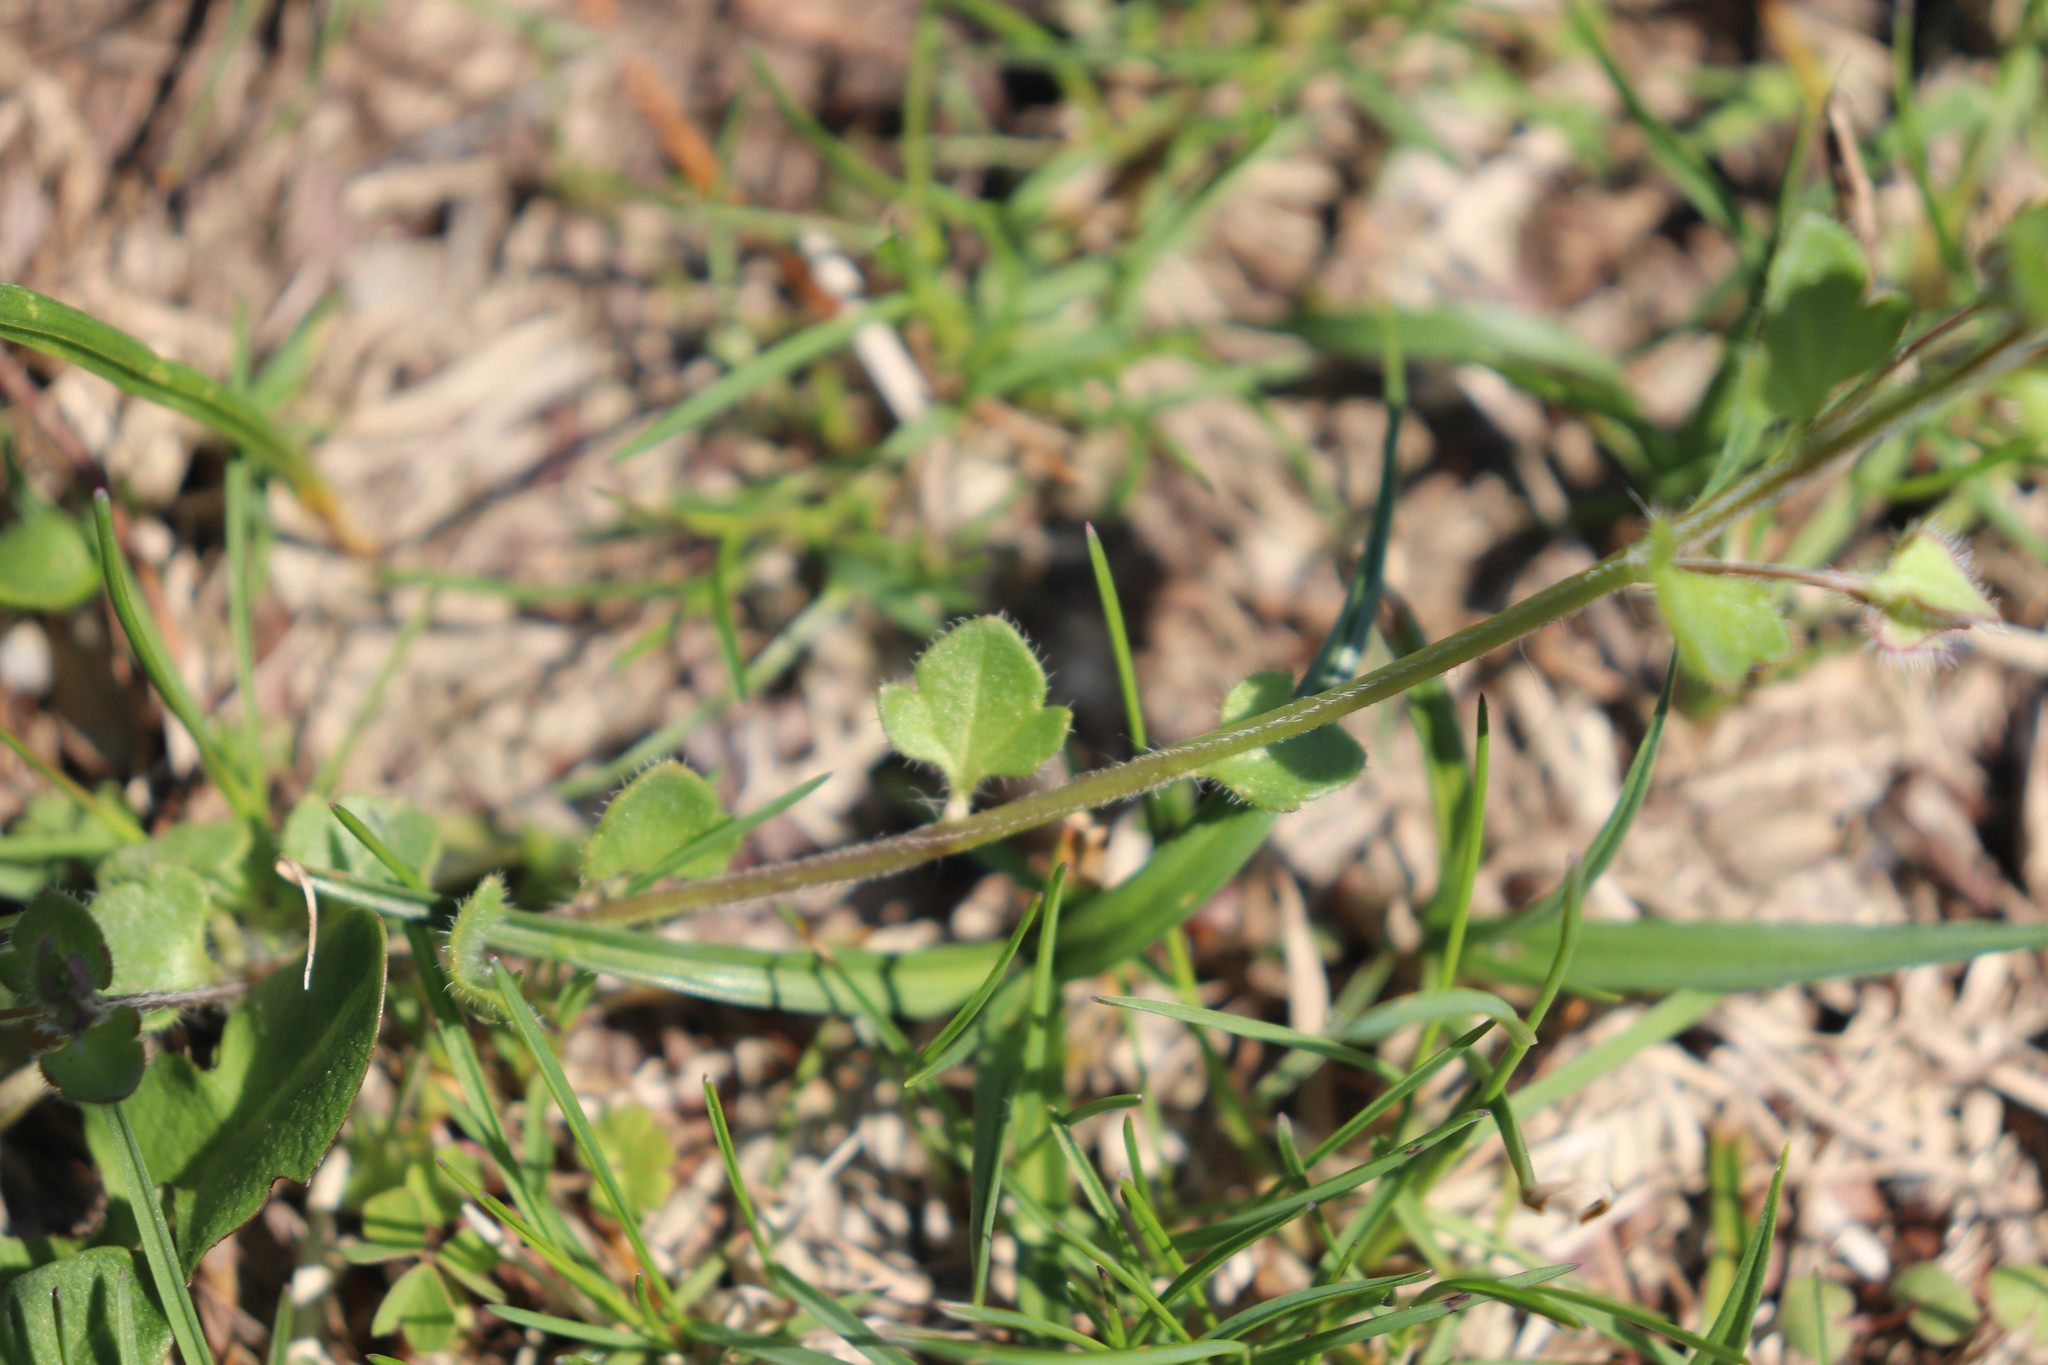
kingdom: Plantae
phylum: Tracheophyta
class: Magnoliopsida
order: Lamiales
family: Plantaginaceae
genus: Veronica
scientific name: Veronica hederifolia
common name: Ivy-leaved speedwell
